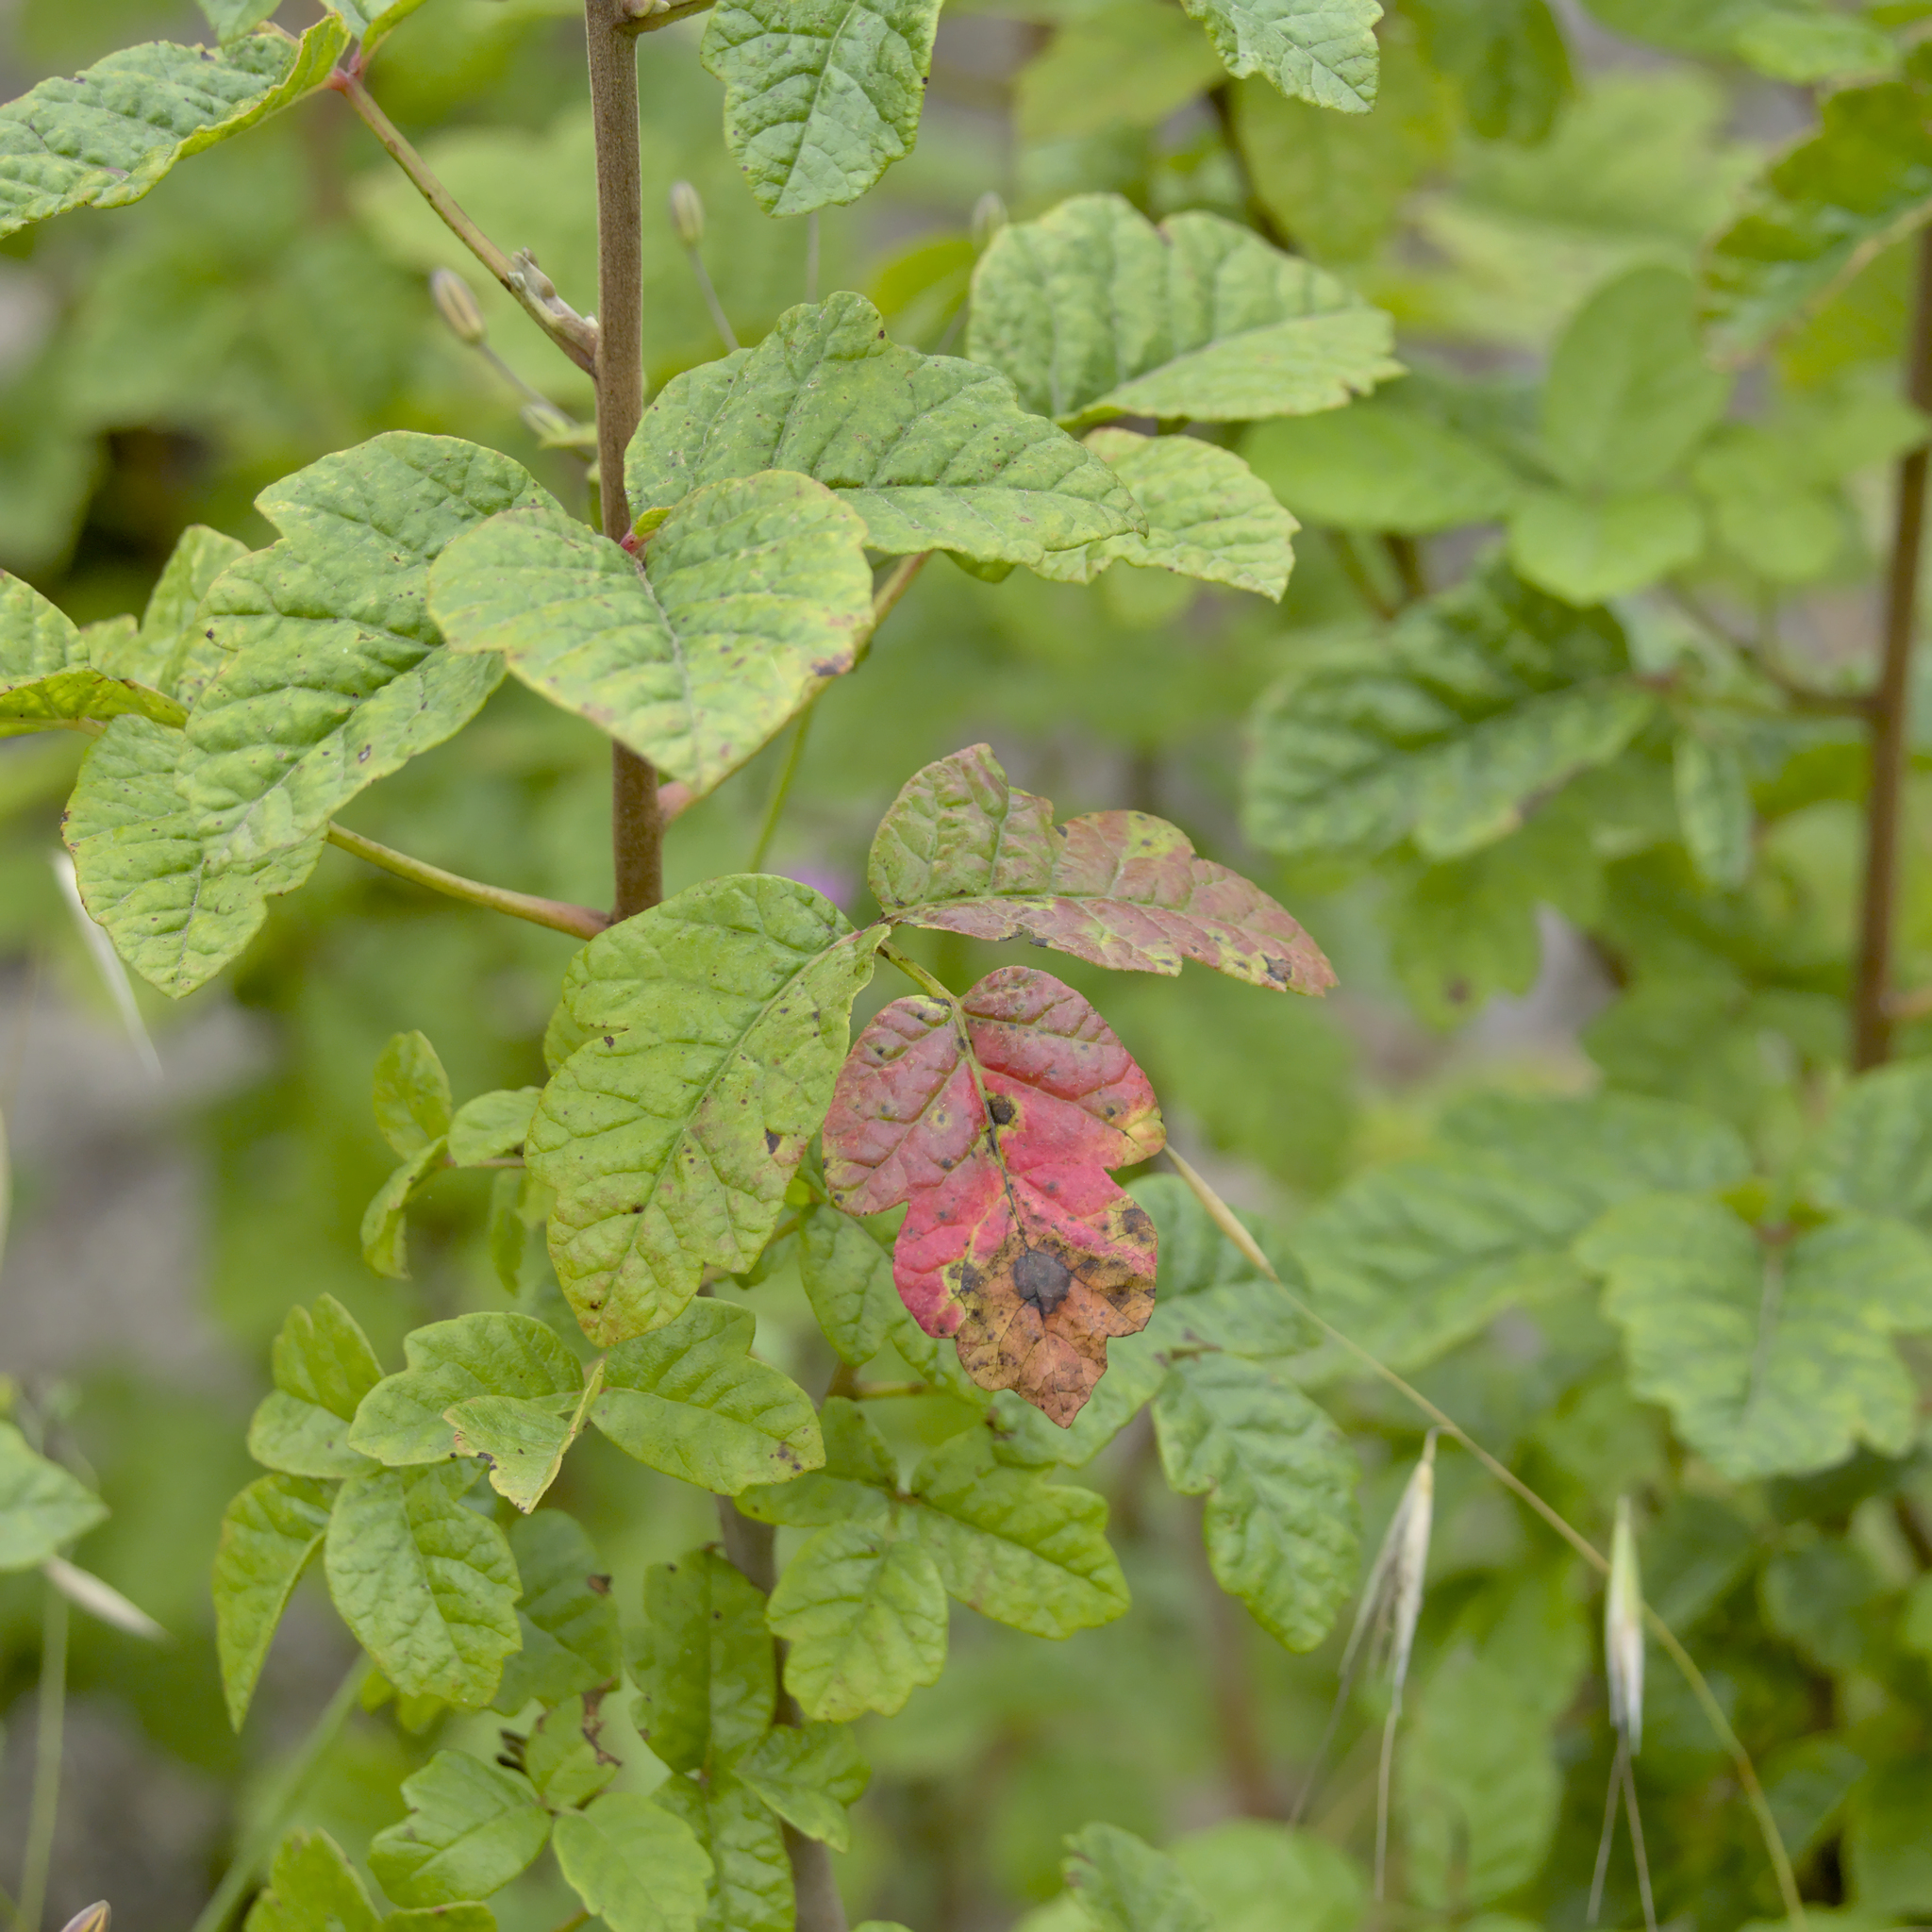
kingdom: Plantae
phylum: Tracheophyta
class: Magnoliopsida
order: Sapindales
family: Anacardiaceae
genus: Toxicodendron
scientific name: Toxicodendron diversilobum
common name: Pacific poison-oak
